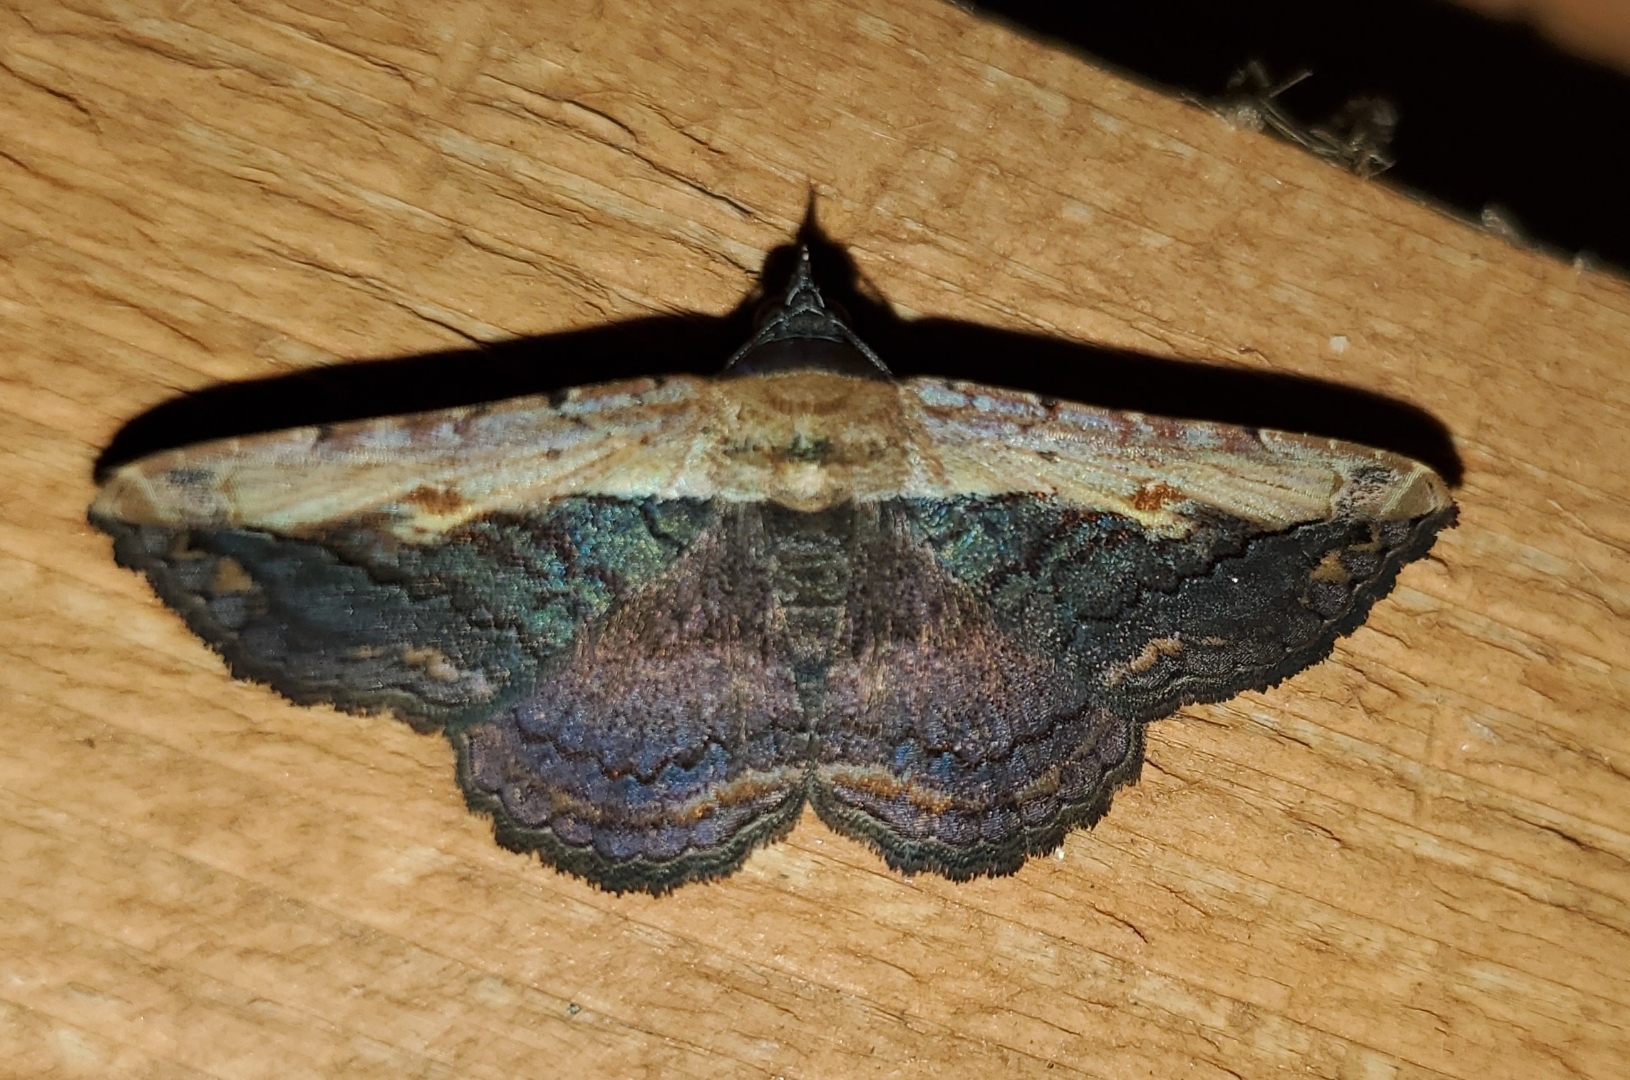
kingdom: Animalia
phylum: Arthropoda
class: Insecta
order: Lepidoptera
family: Erebidae
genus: Selenisa
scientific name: Selenisa sueroides
